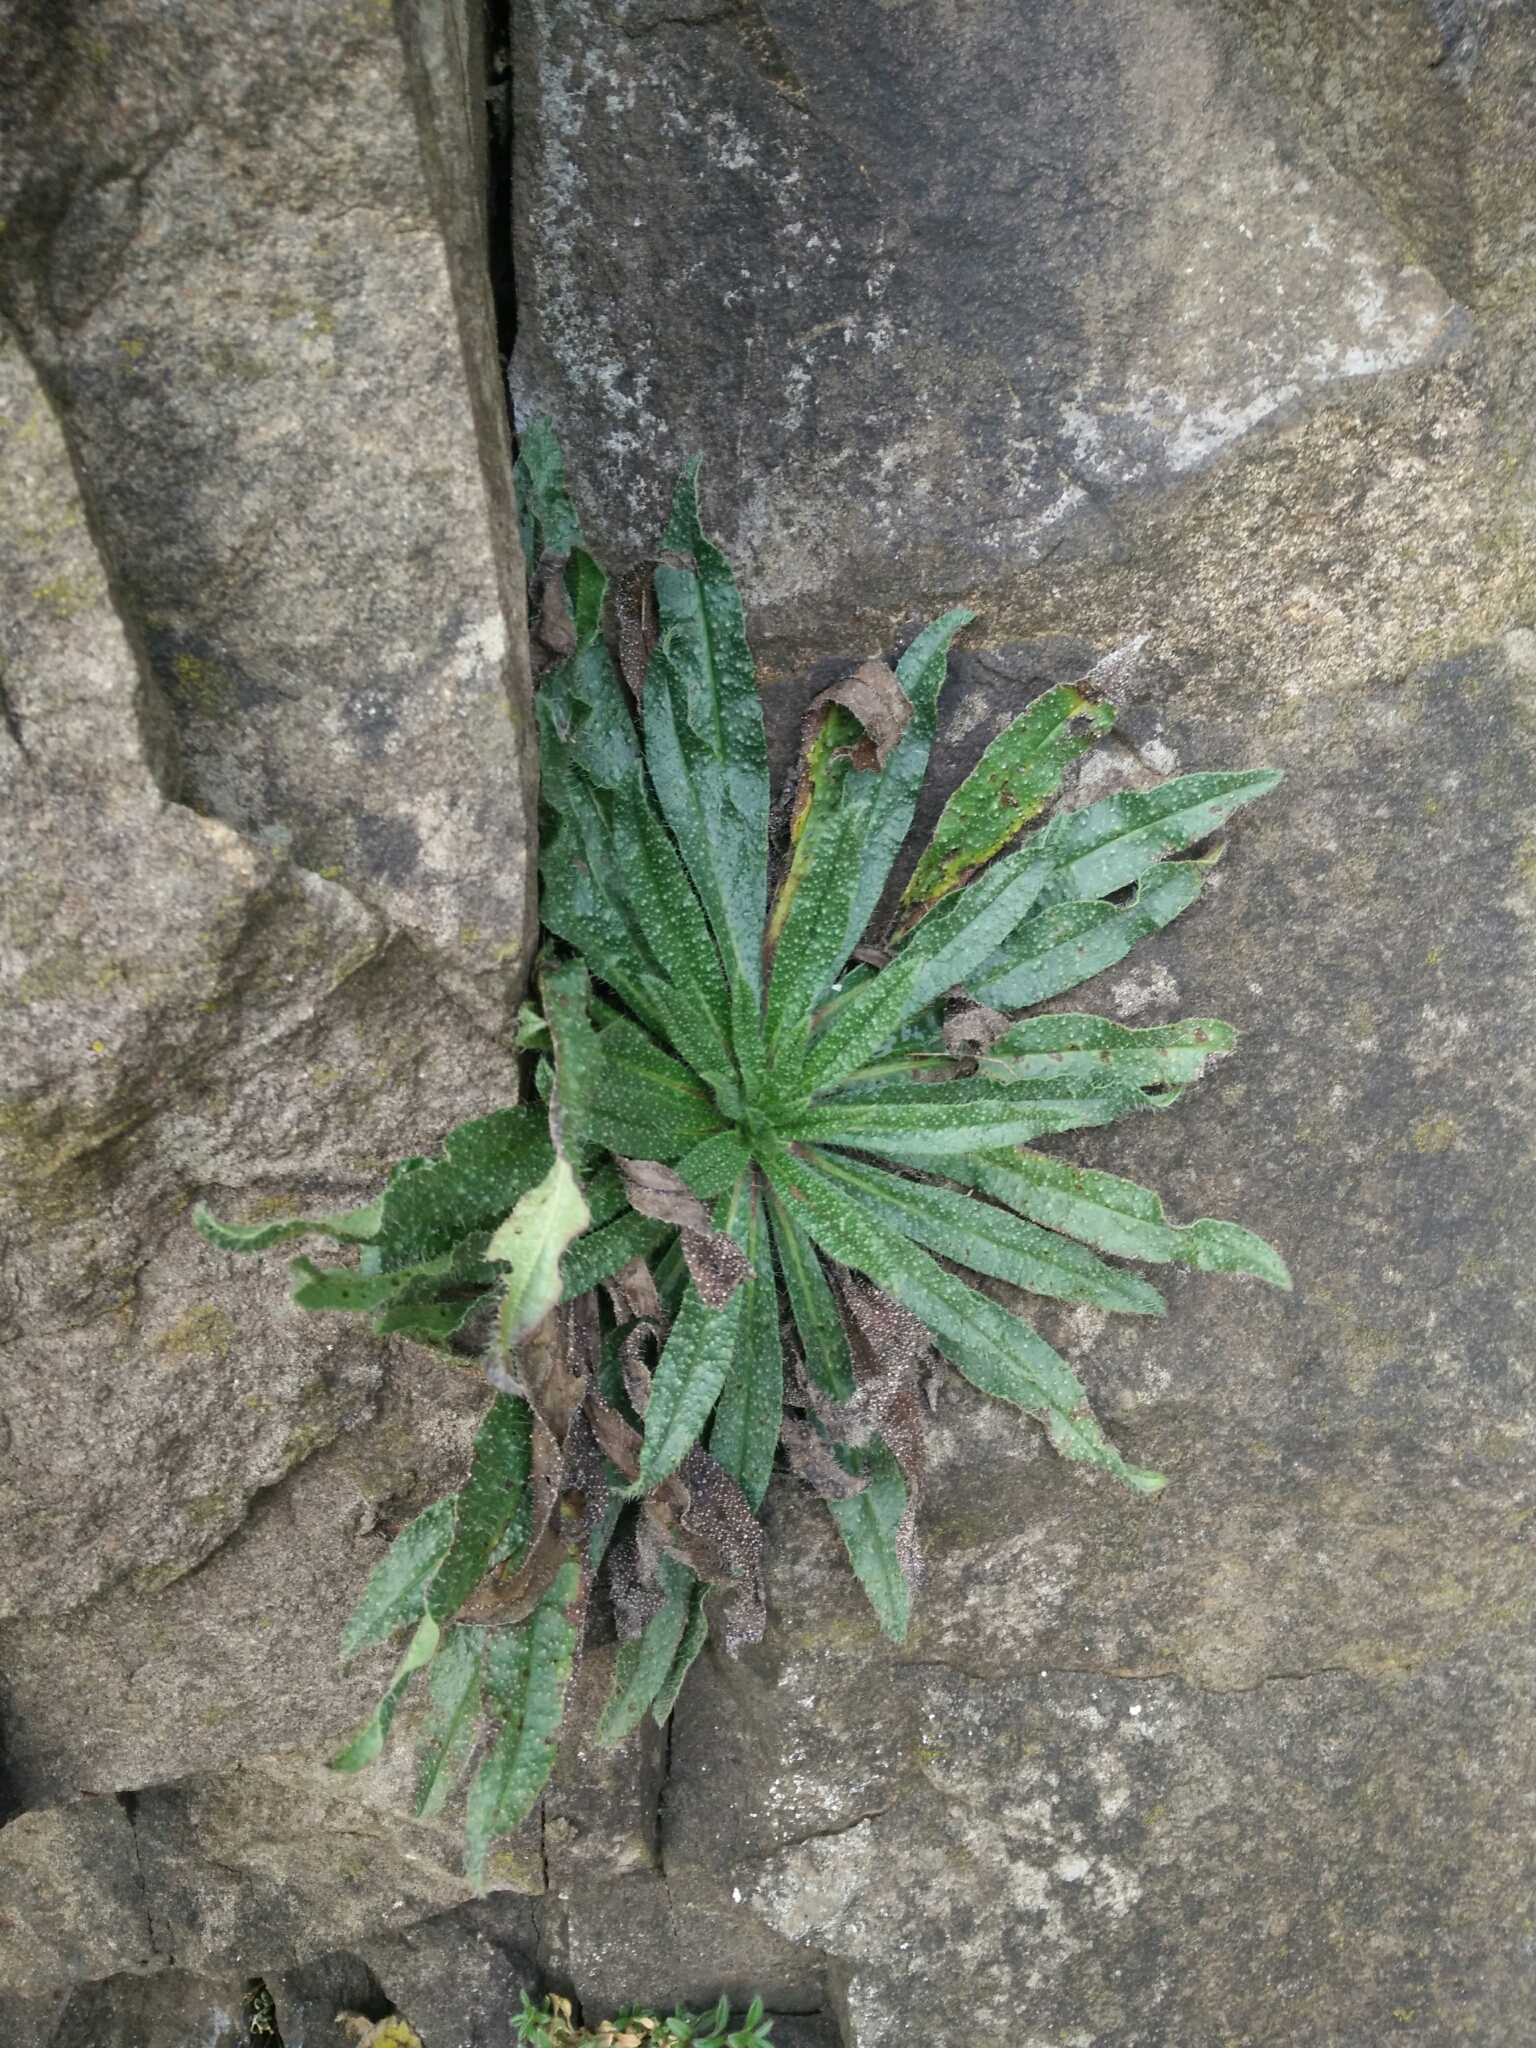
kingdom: Plantae
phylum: Tracheophyta
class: Magnoliopsida
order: Boraginales
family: Boraginaceae
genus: Echium
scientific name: Echium vulgare
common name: Common viper's bugloss
